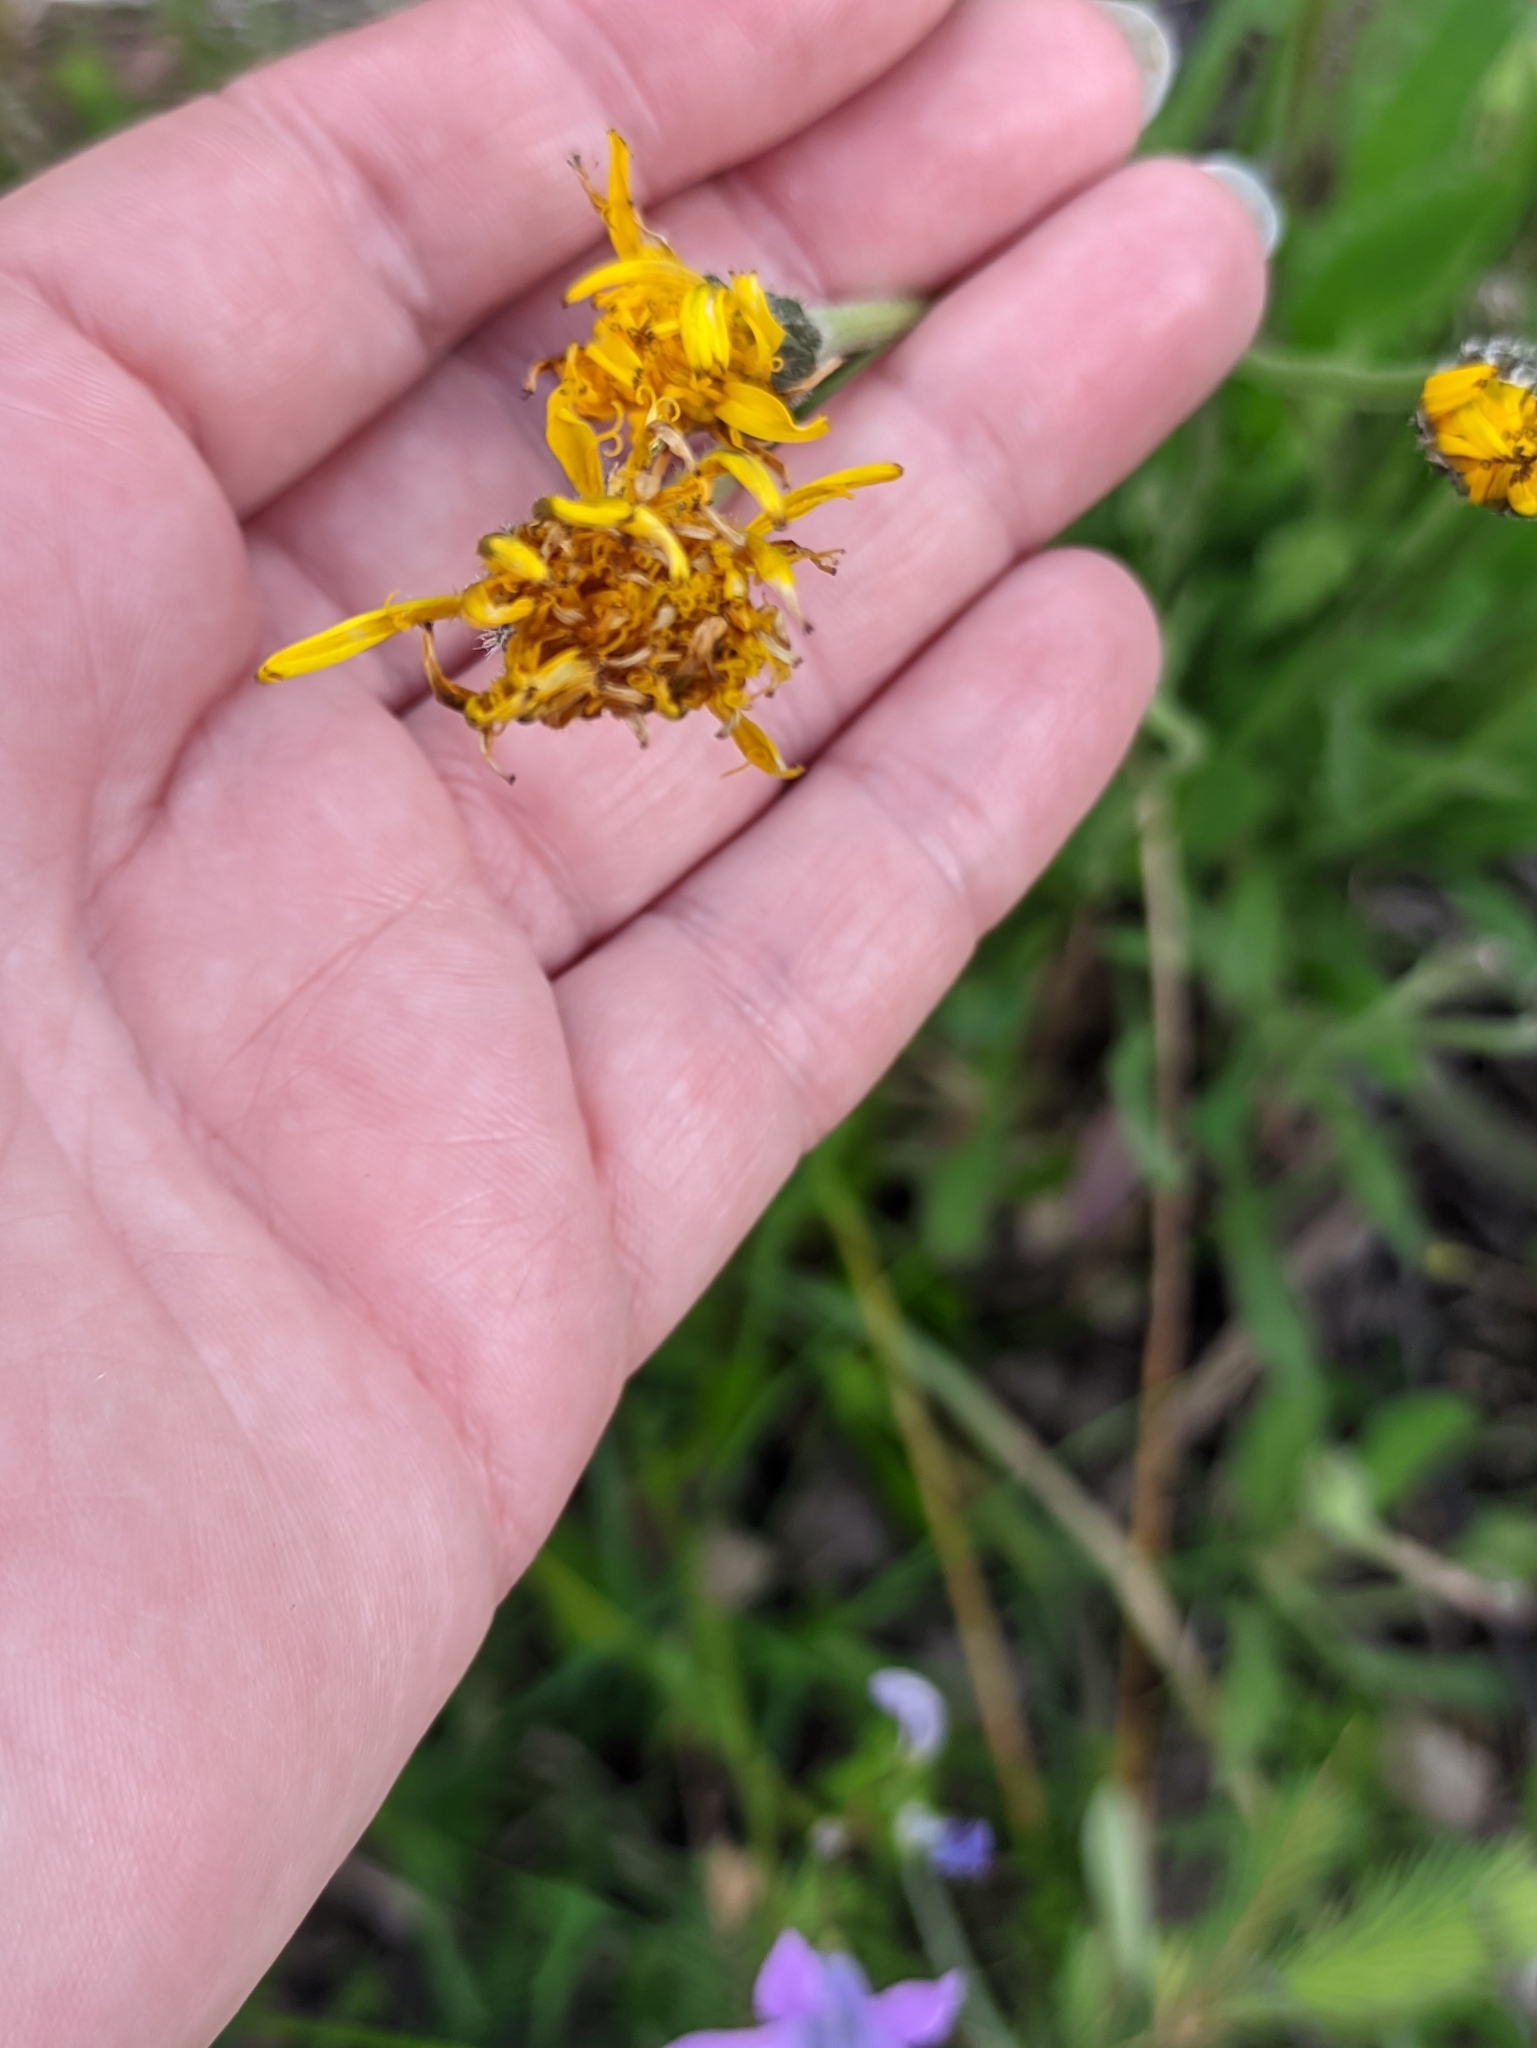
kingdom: Plantae
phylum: Tracheophyta
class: Magnoliopsida
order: Asterales
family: Asteraceae
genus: Leontodon
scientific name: Leontodon hispidus
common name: Rough hawkbit
